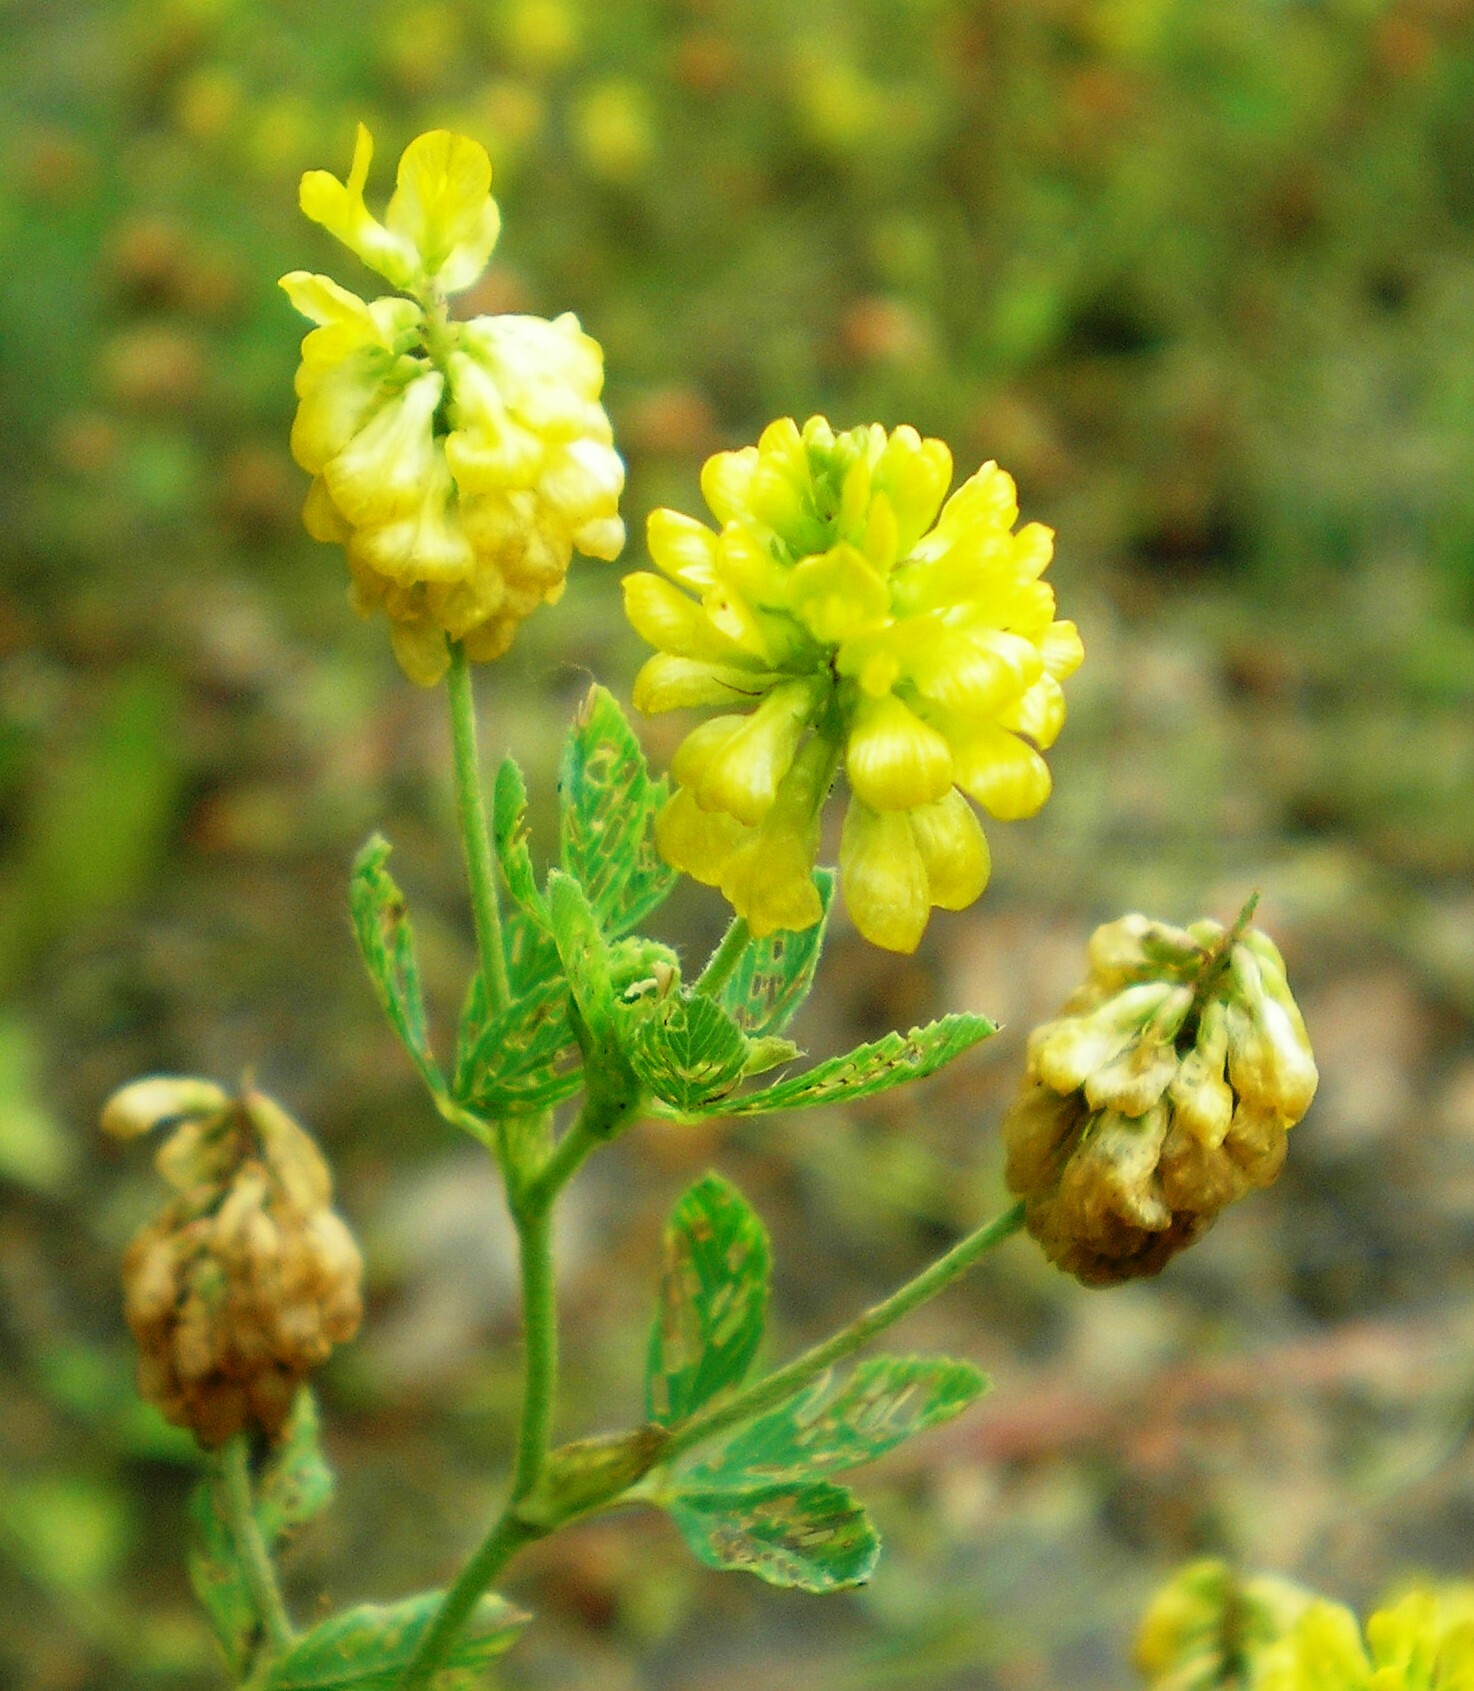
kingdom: Plantae
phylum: Tracheophyta
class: Magnoliopsida
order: Fabales
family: Fabaceae
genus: Trifolium
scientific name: Trifolium aureum
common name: Golden clover
